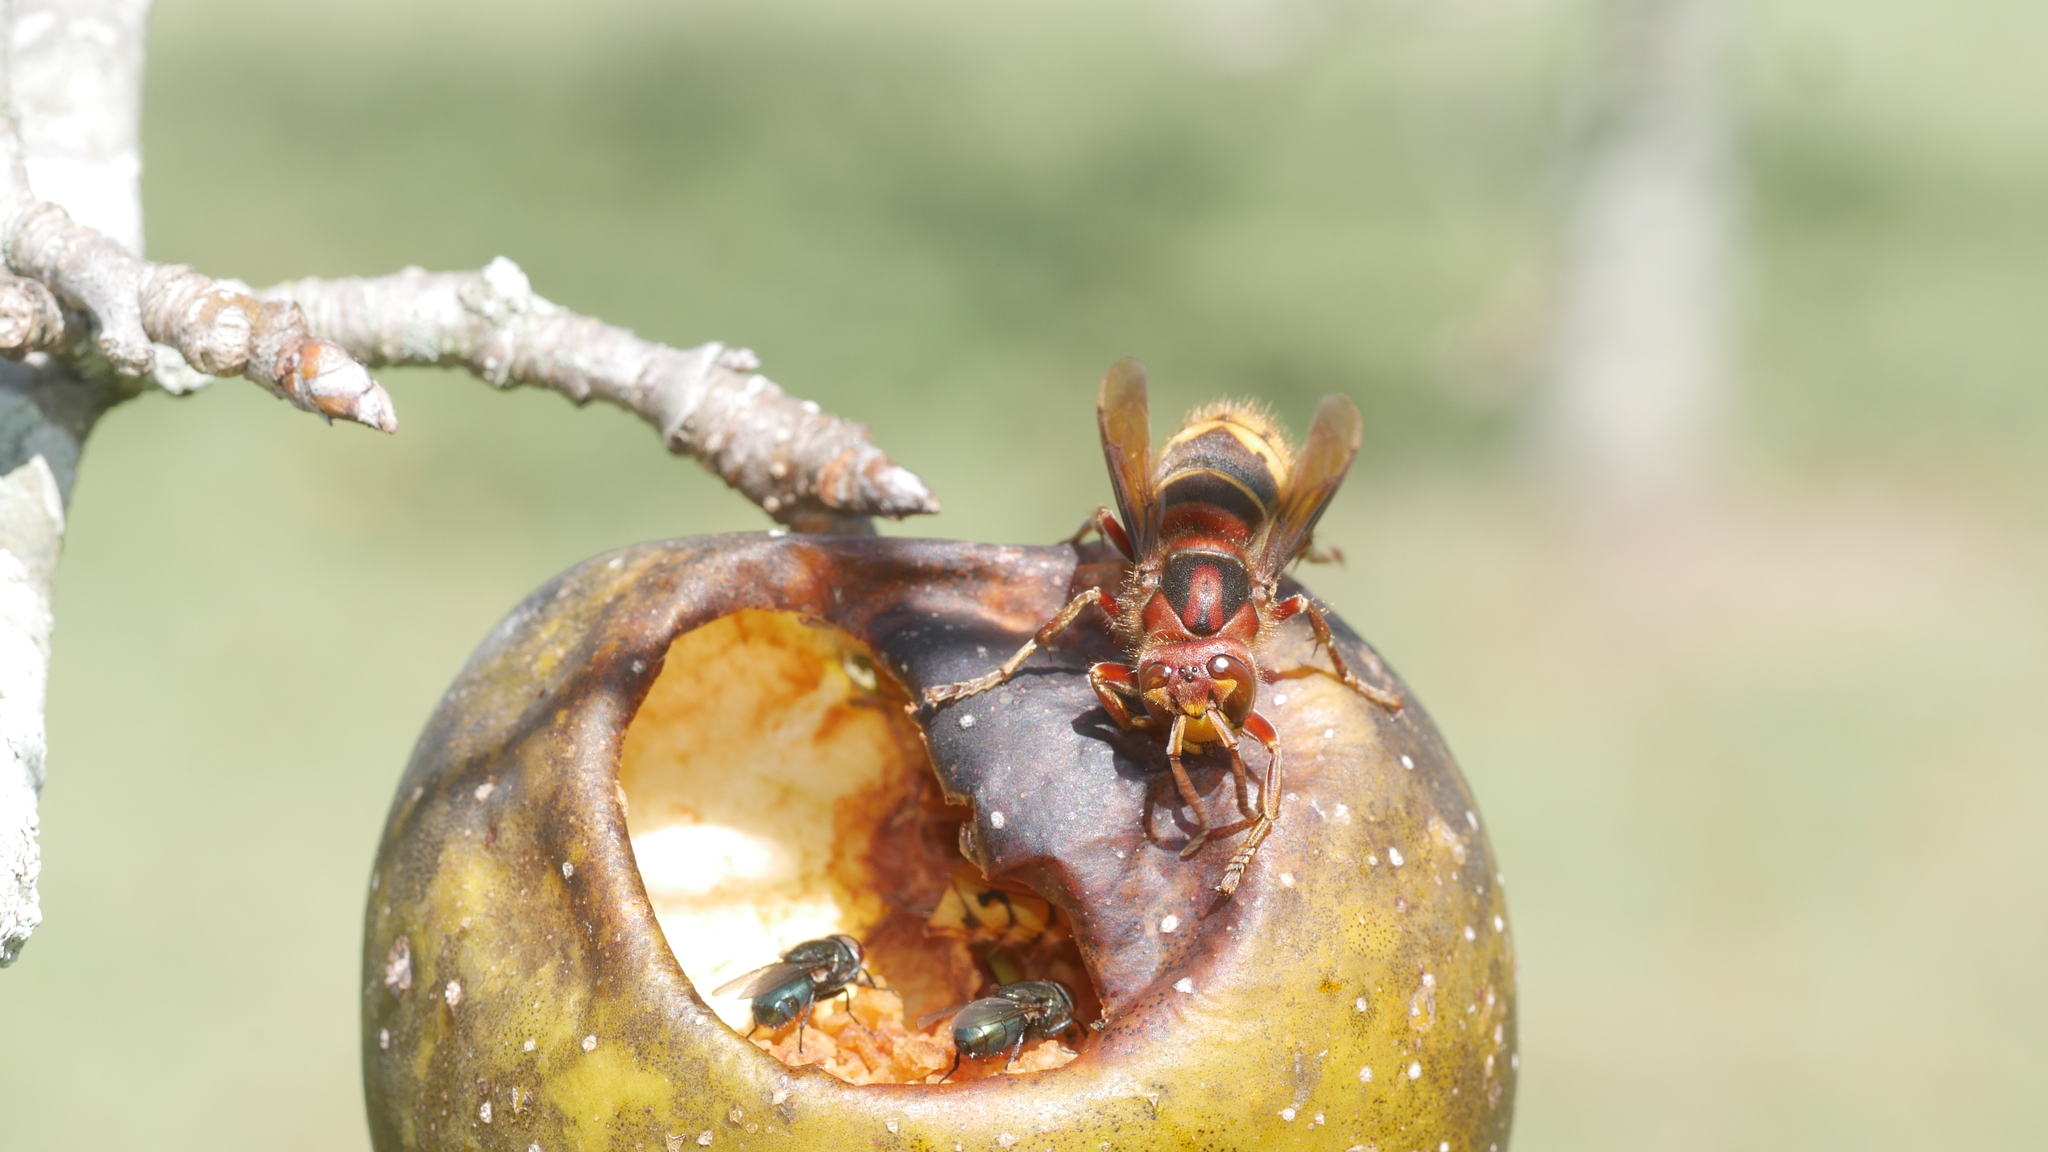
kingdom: Animalia
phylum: Arthropoda
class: Insecta
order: Hymenoptera
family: Vespidae
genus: Vespa
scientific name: Vespa crabro
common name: Hornet
